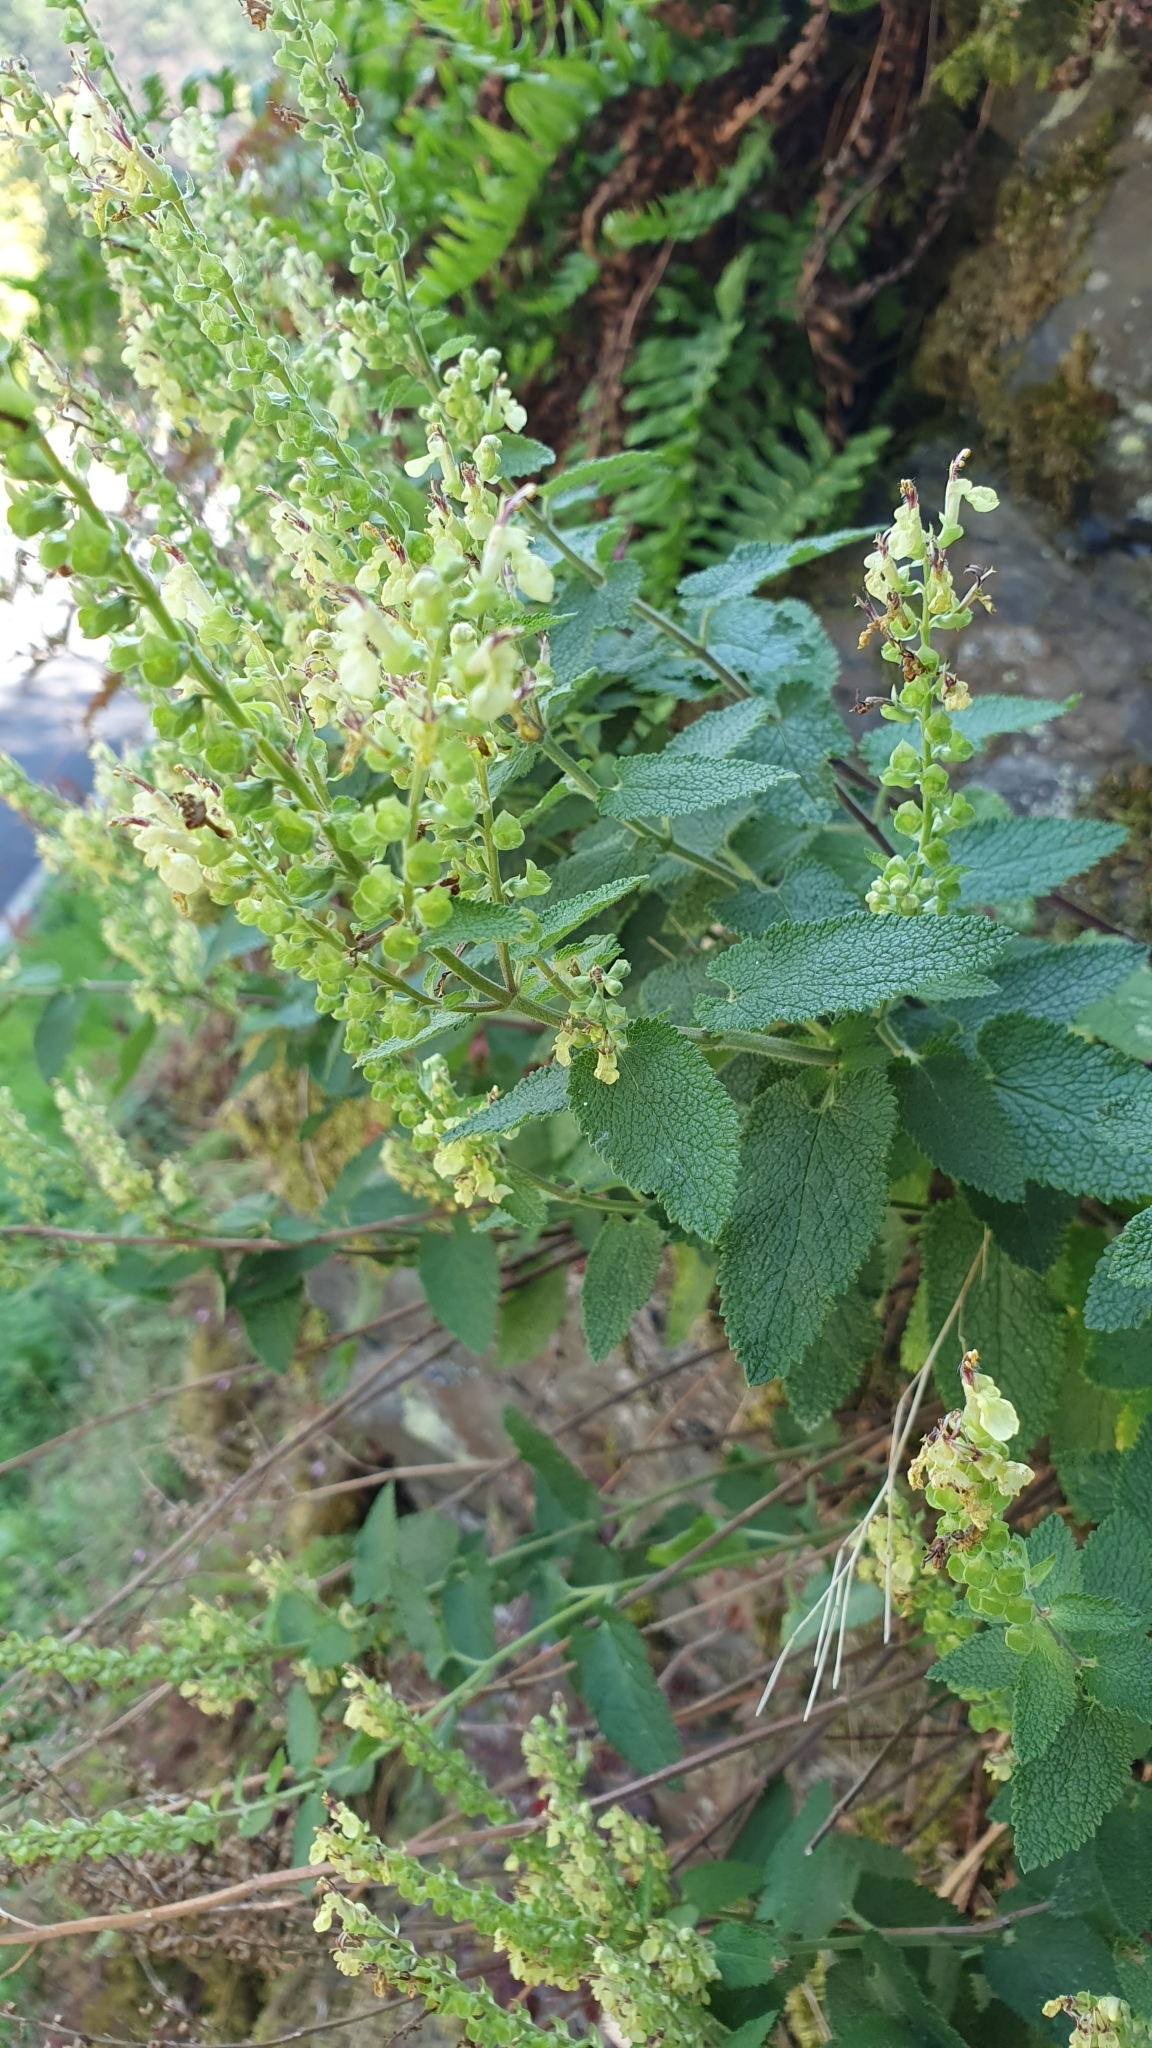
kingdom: Plantae
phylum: Tracheophyta
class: Magnoliopsida
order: Lamiales
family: Lamiaceae
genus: Teucrium
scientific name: Teucrium scorodonia
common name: Woodland germander
